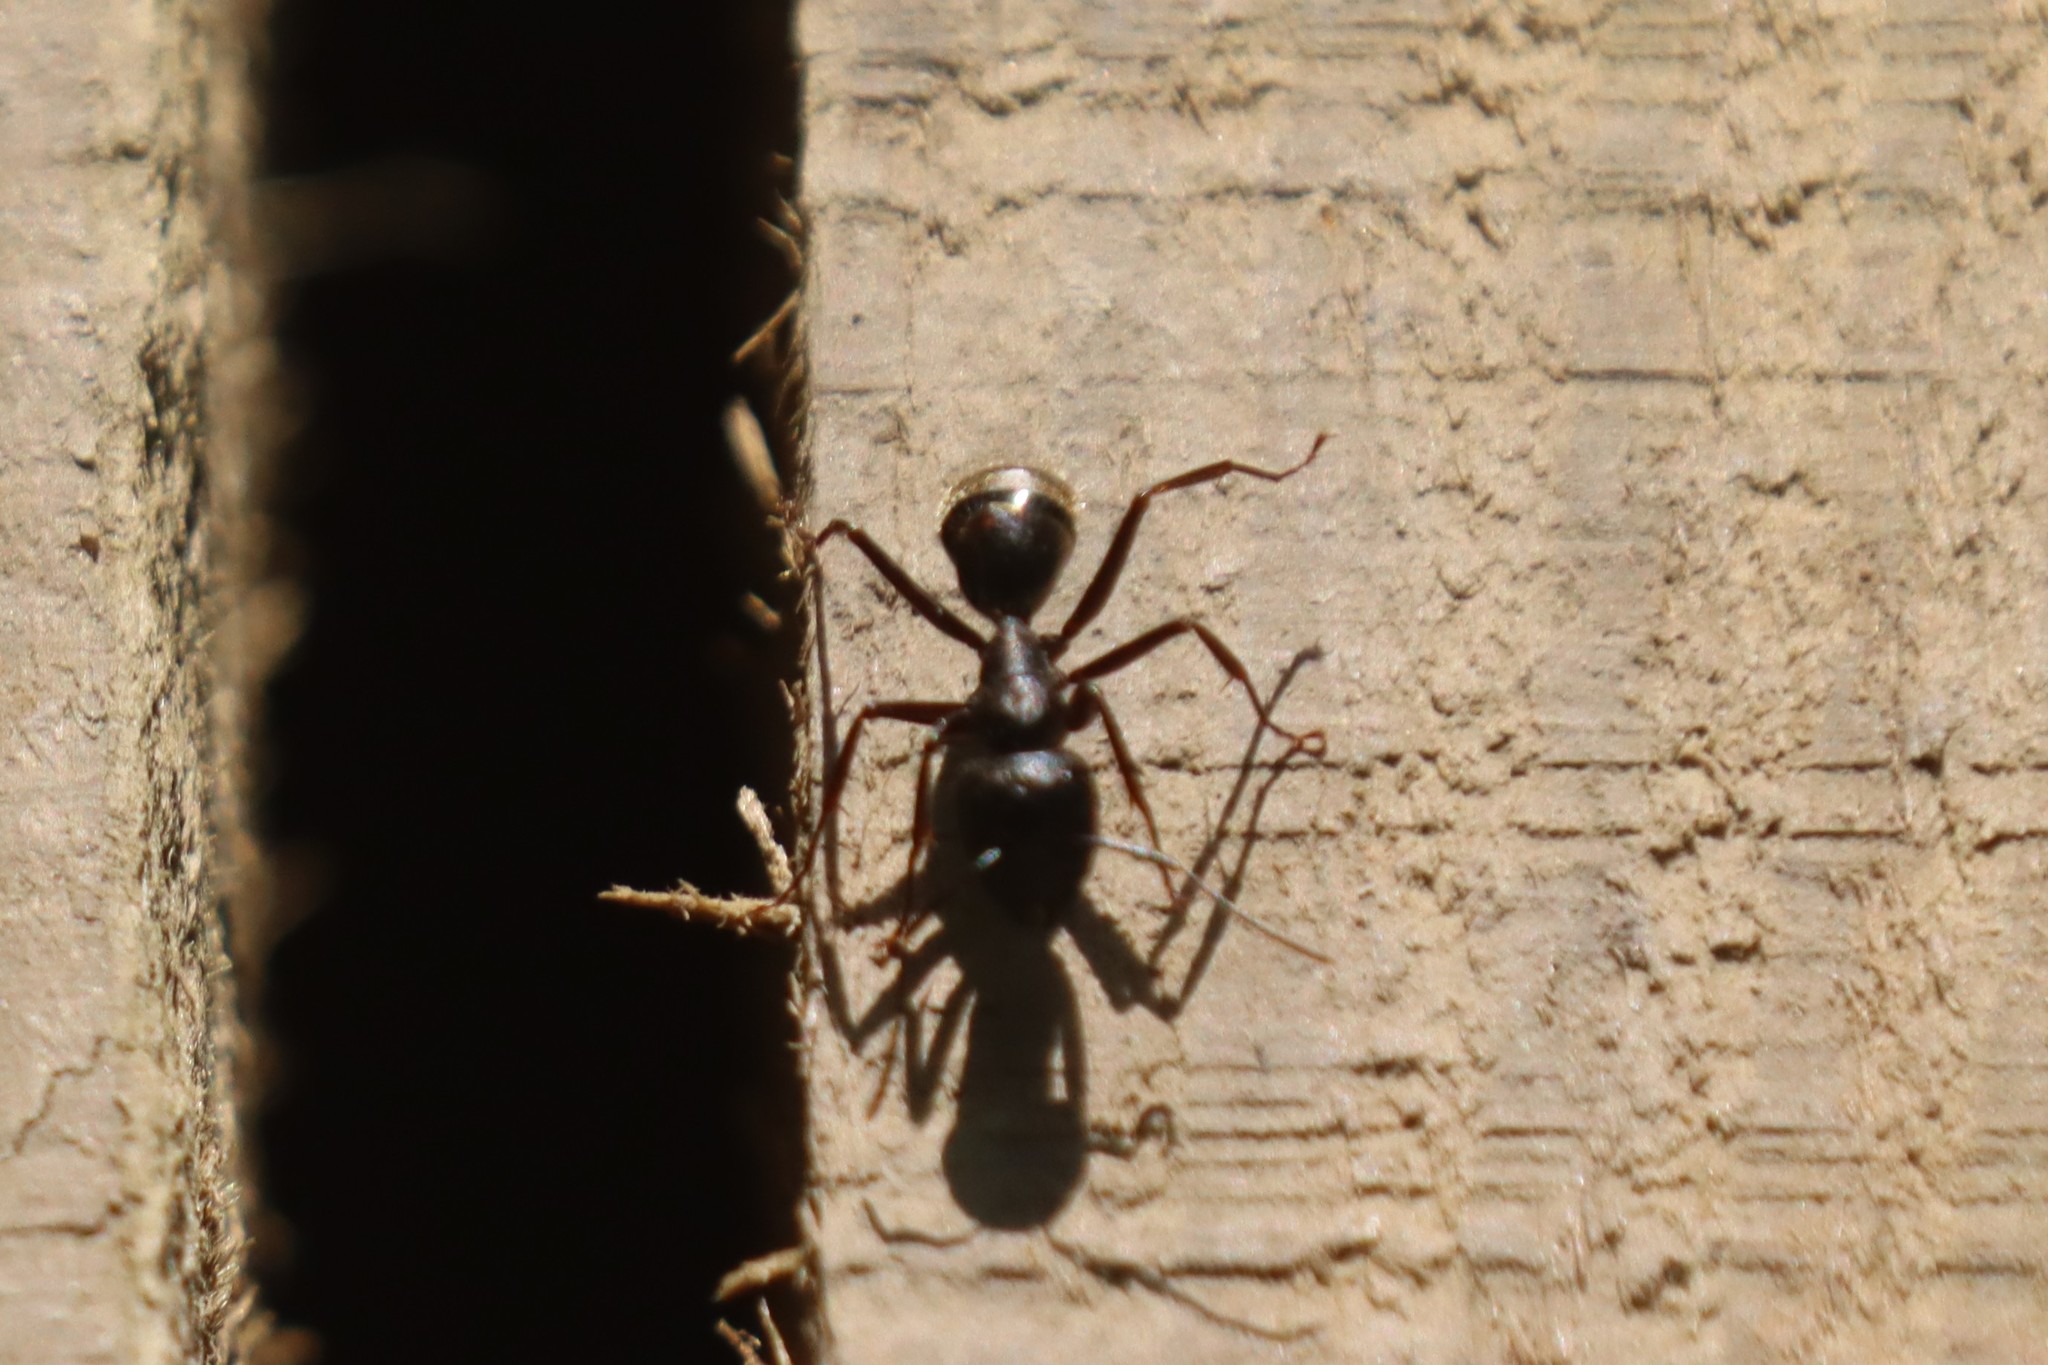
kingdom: Animalia
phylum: Arthropoda
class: Insecta
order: Hymenoptera
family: Formicidae
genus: Camponotus
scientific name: Camponotus pennsylvanicus
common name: Black carpenter ant
